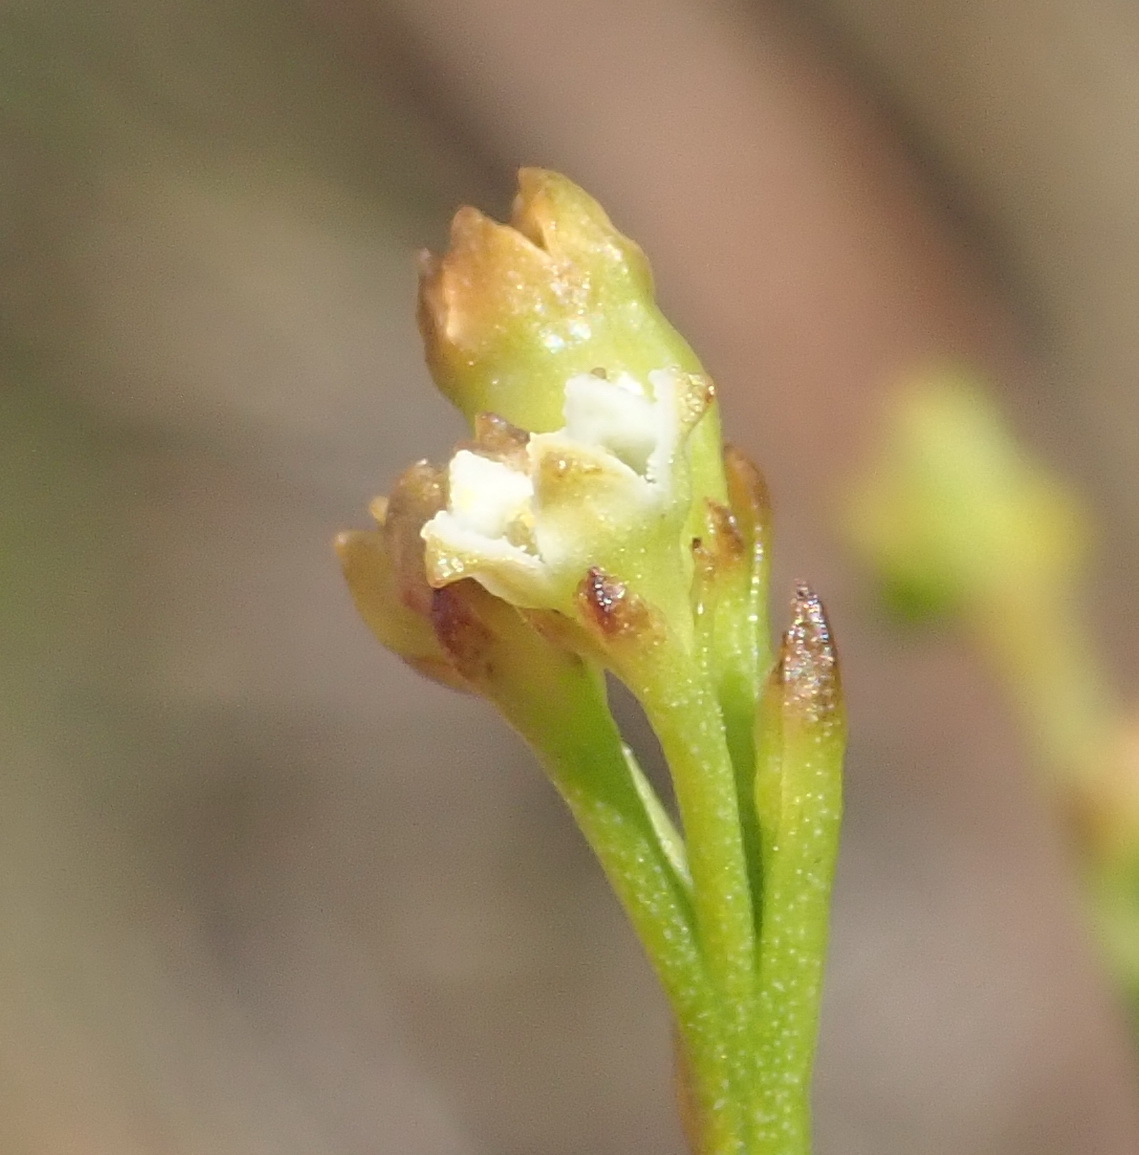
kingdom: Plantae
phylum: Tracheophyta
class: Magnoliopsida
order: Santalales
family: Thesiaceae
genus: Thesium
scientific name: Thesium virgatum
